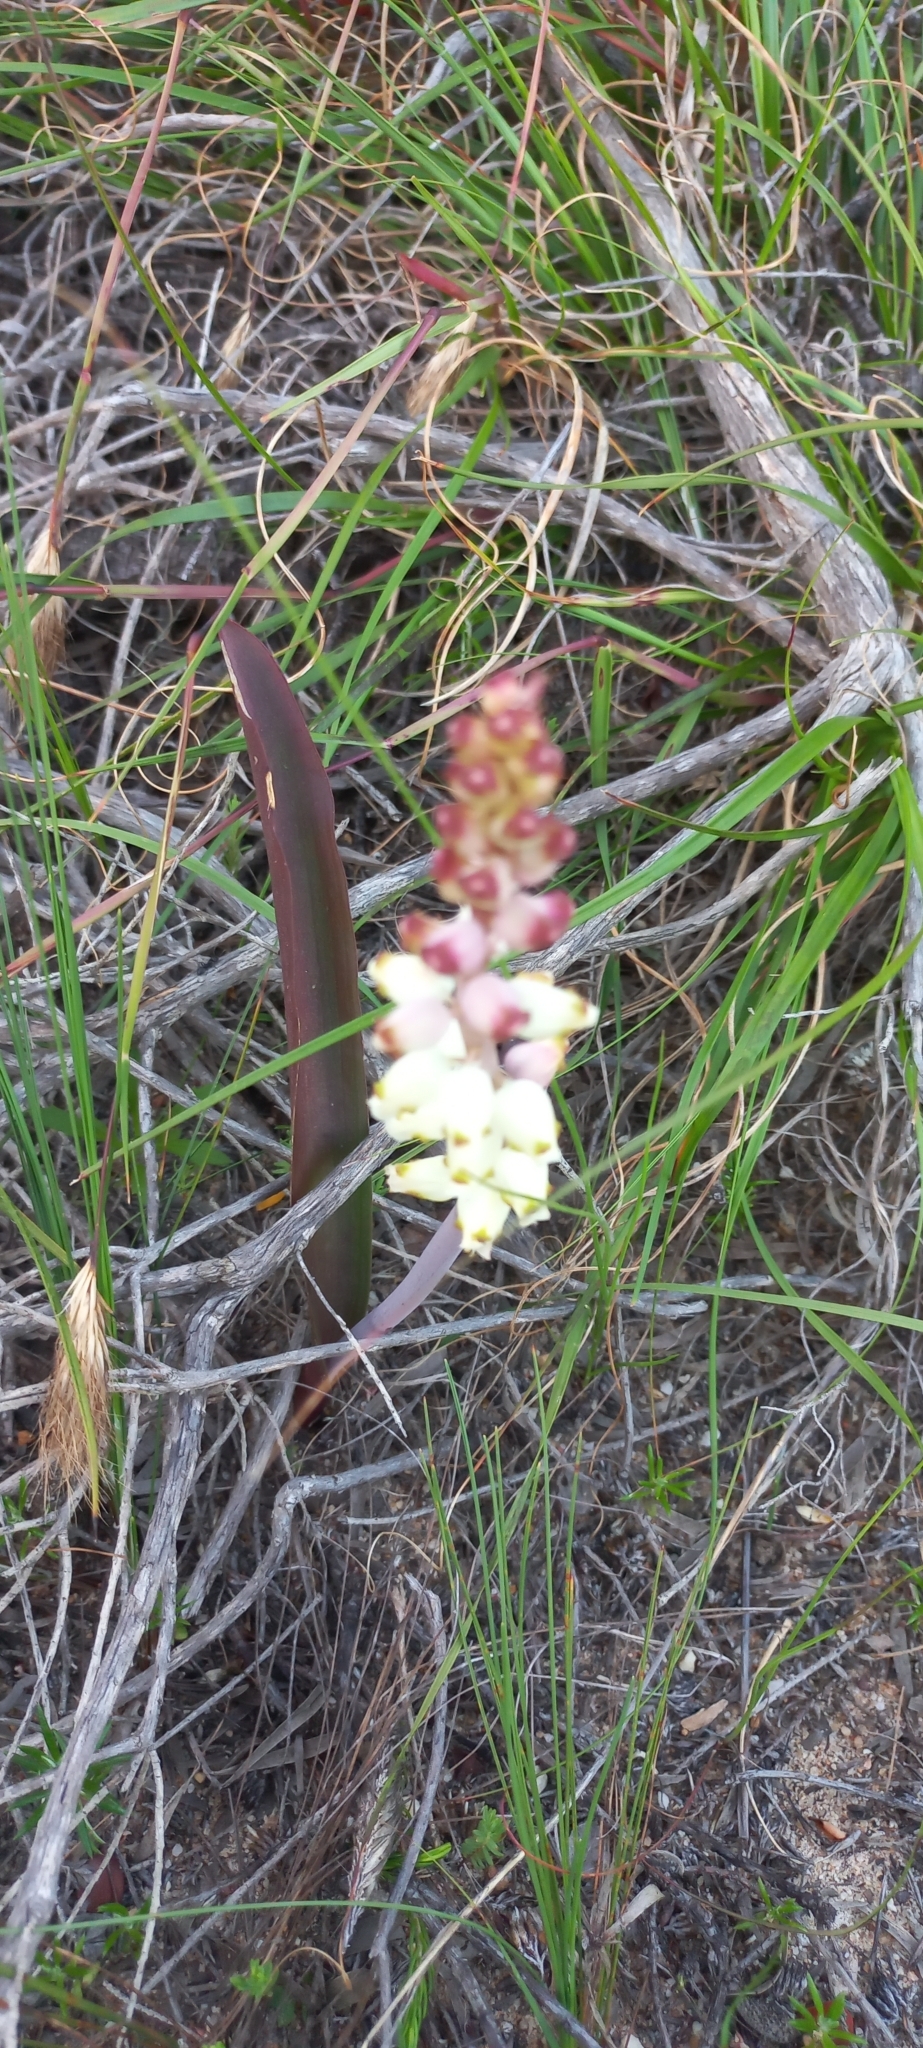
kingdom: Plantae
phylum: Tracheophyta
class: Liliopsida
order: Asparagales
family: Asparagaceae
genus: Lachenalia
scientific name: Lachenalia peersii
